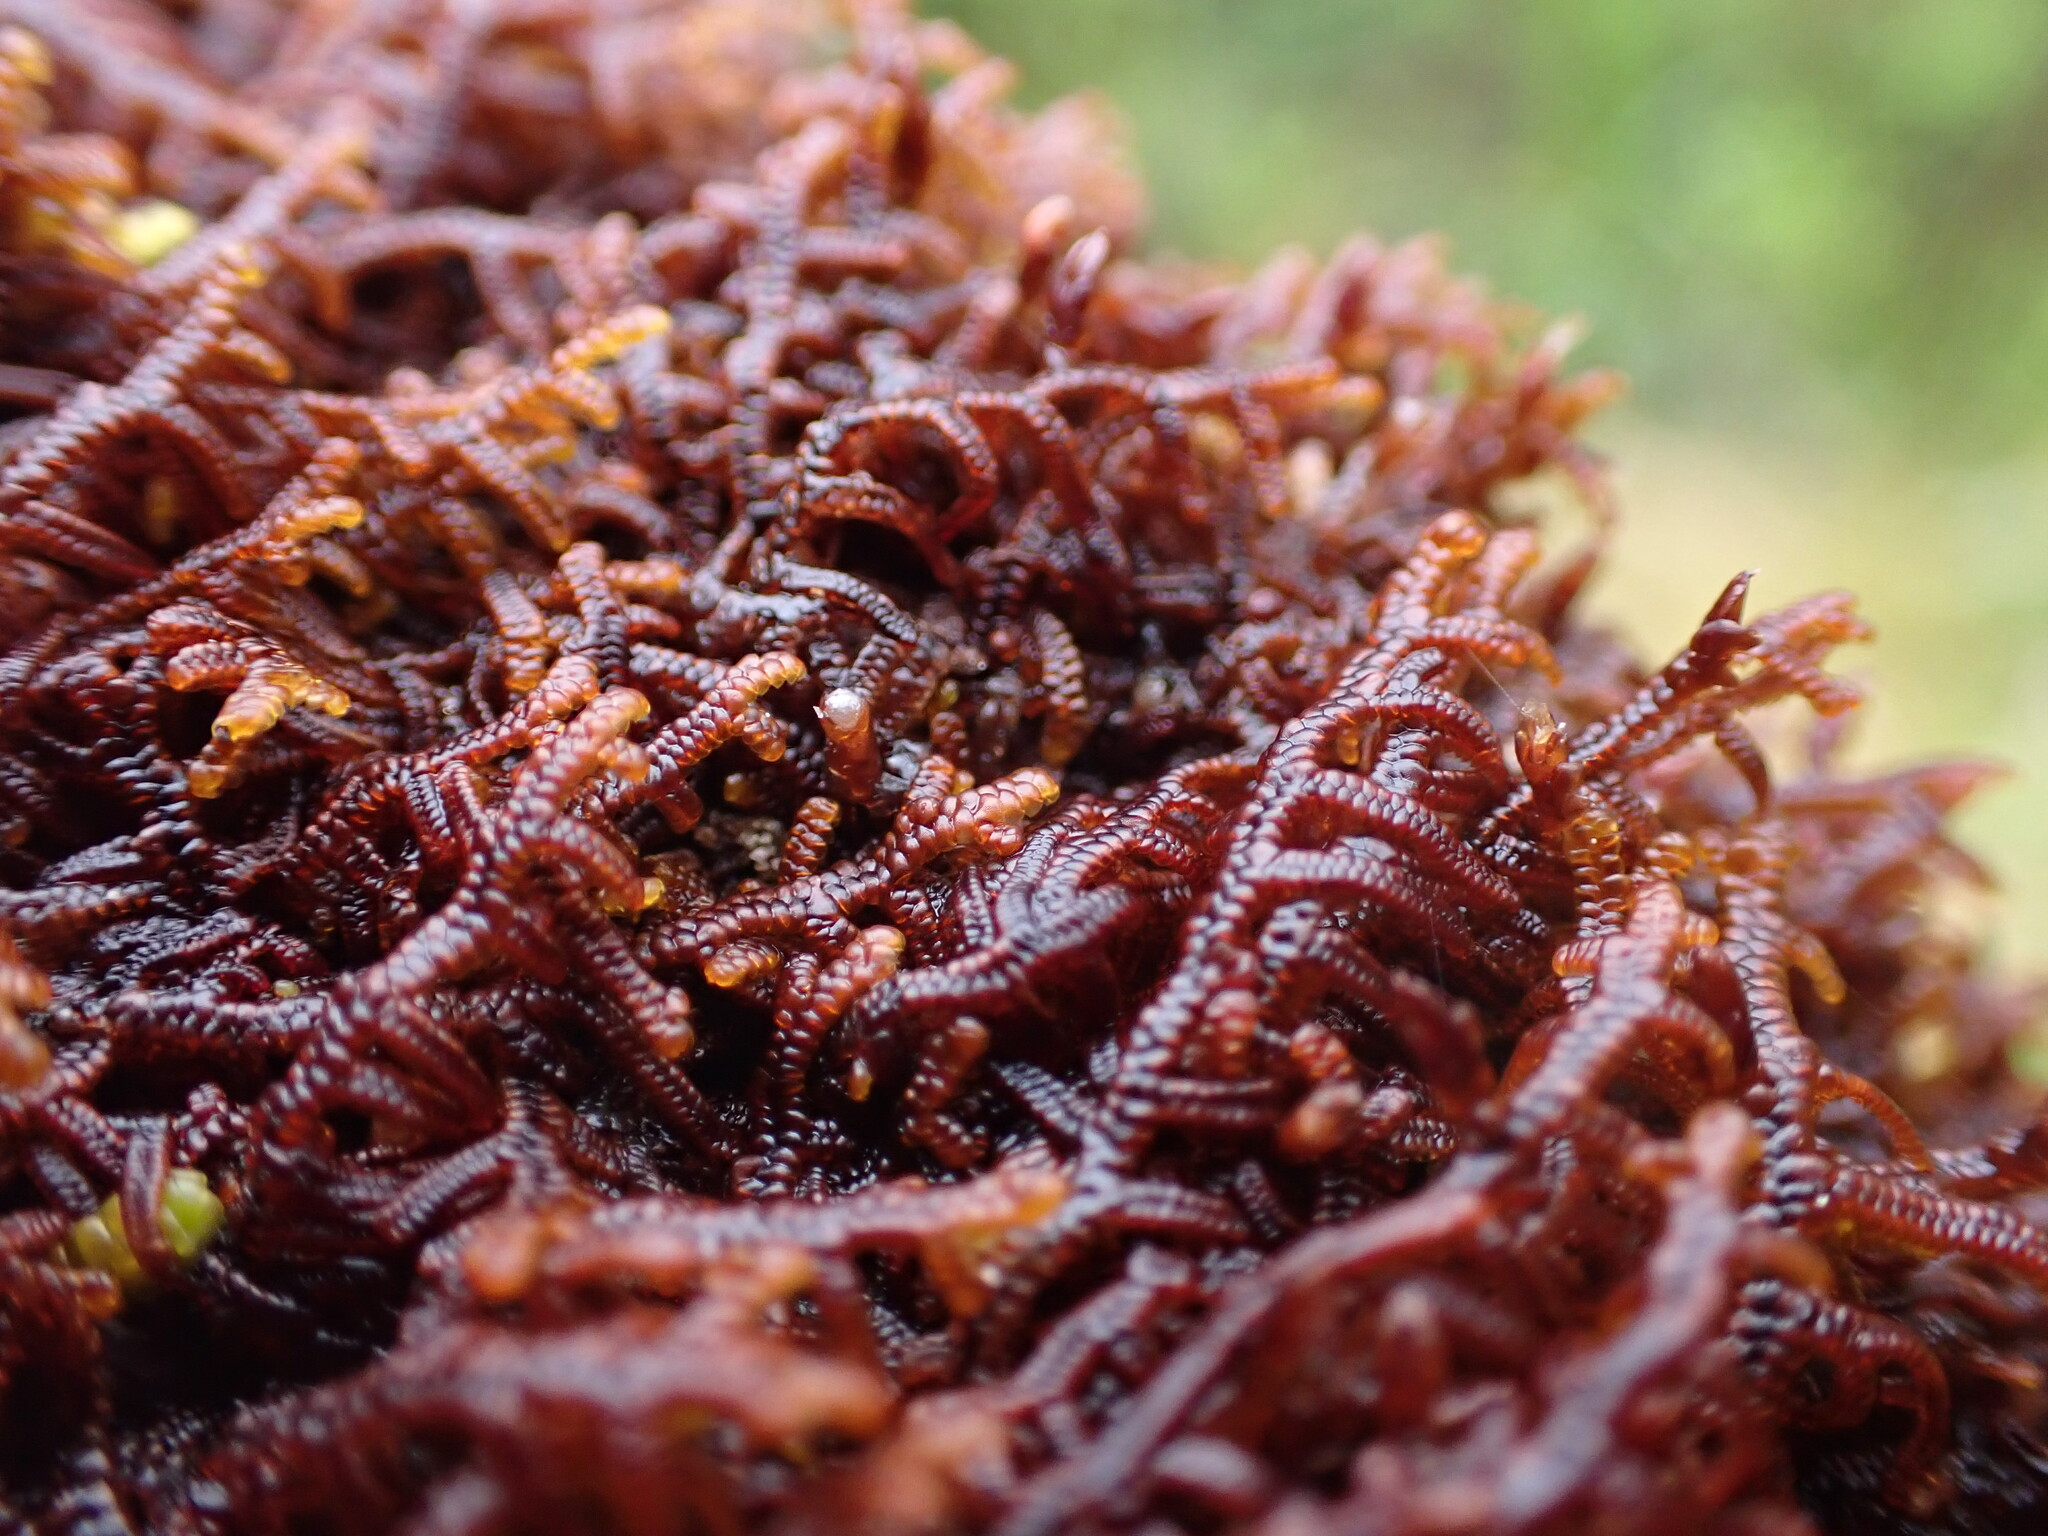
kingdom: Plantae
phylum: Marchantiophyta
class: Jungermanniopsida
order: Porellales
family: Frullaniaceae
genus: Frullania
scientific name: Frullania nisquallensis
